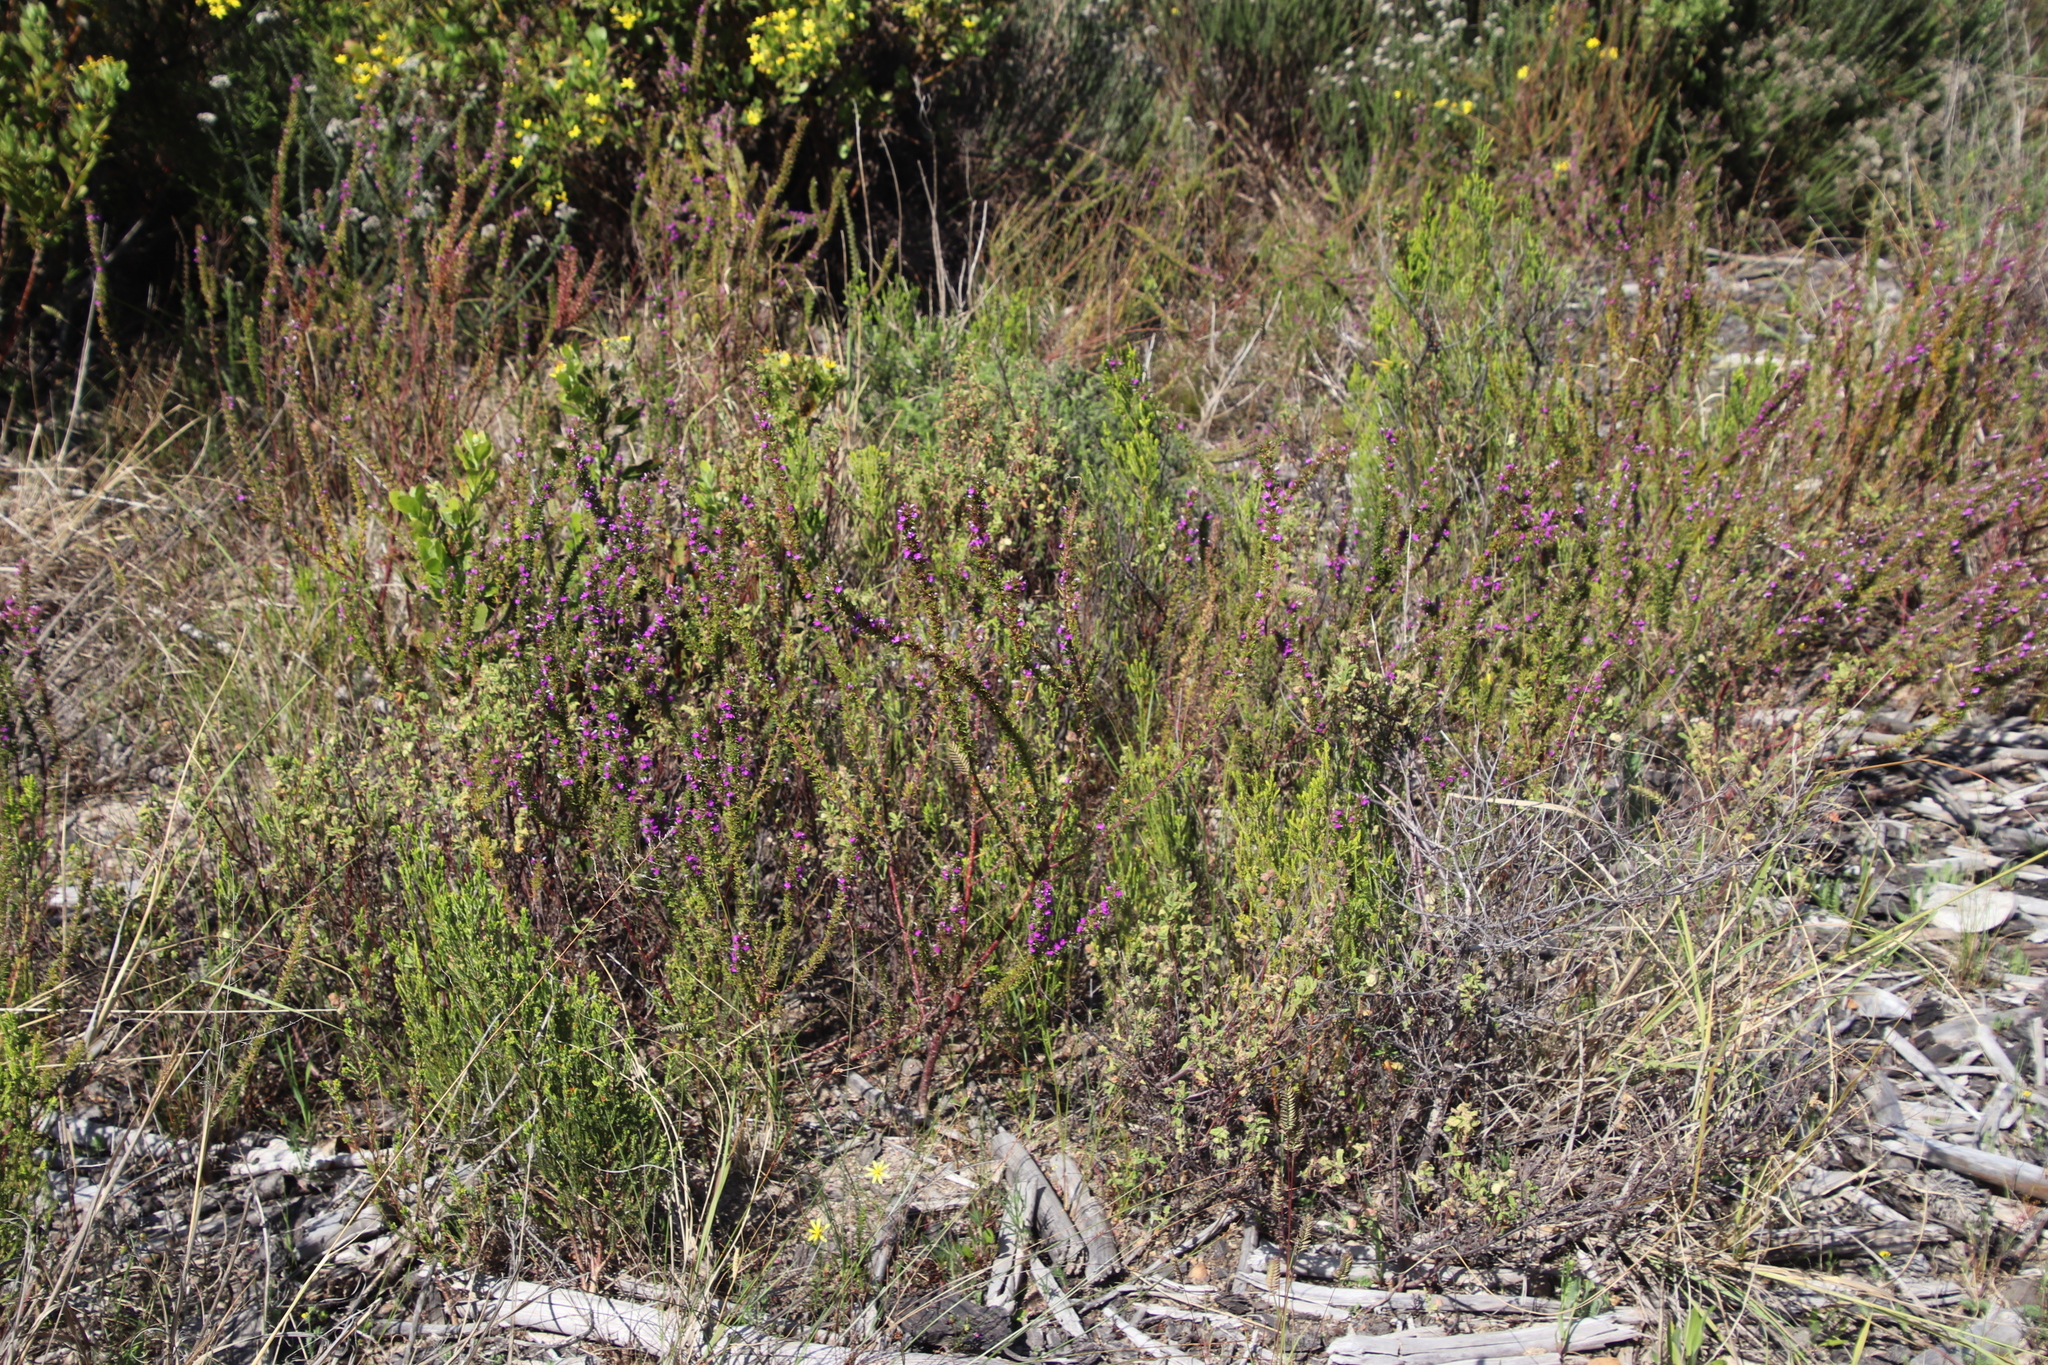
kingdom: Plantae
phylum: Tracheophyta
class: Magnoliopsida
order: Fabales
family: Polygalaceae
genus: Muraltia
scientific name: Muraltia heisteria
